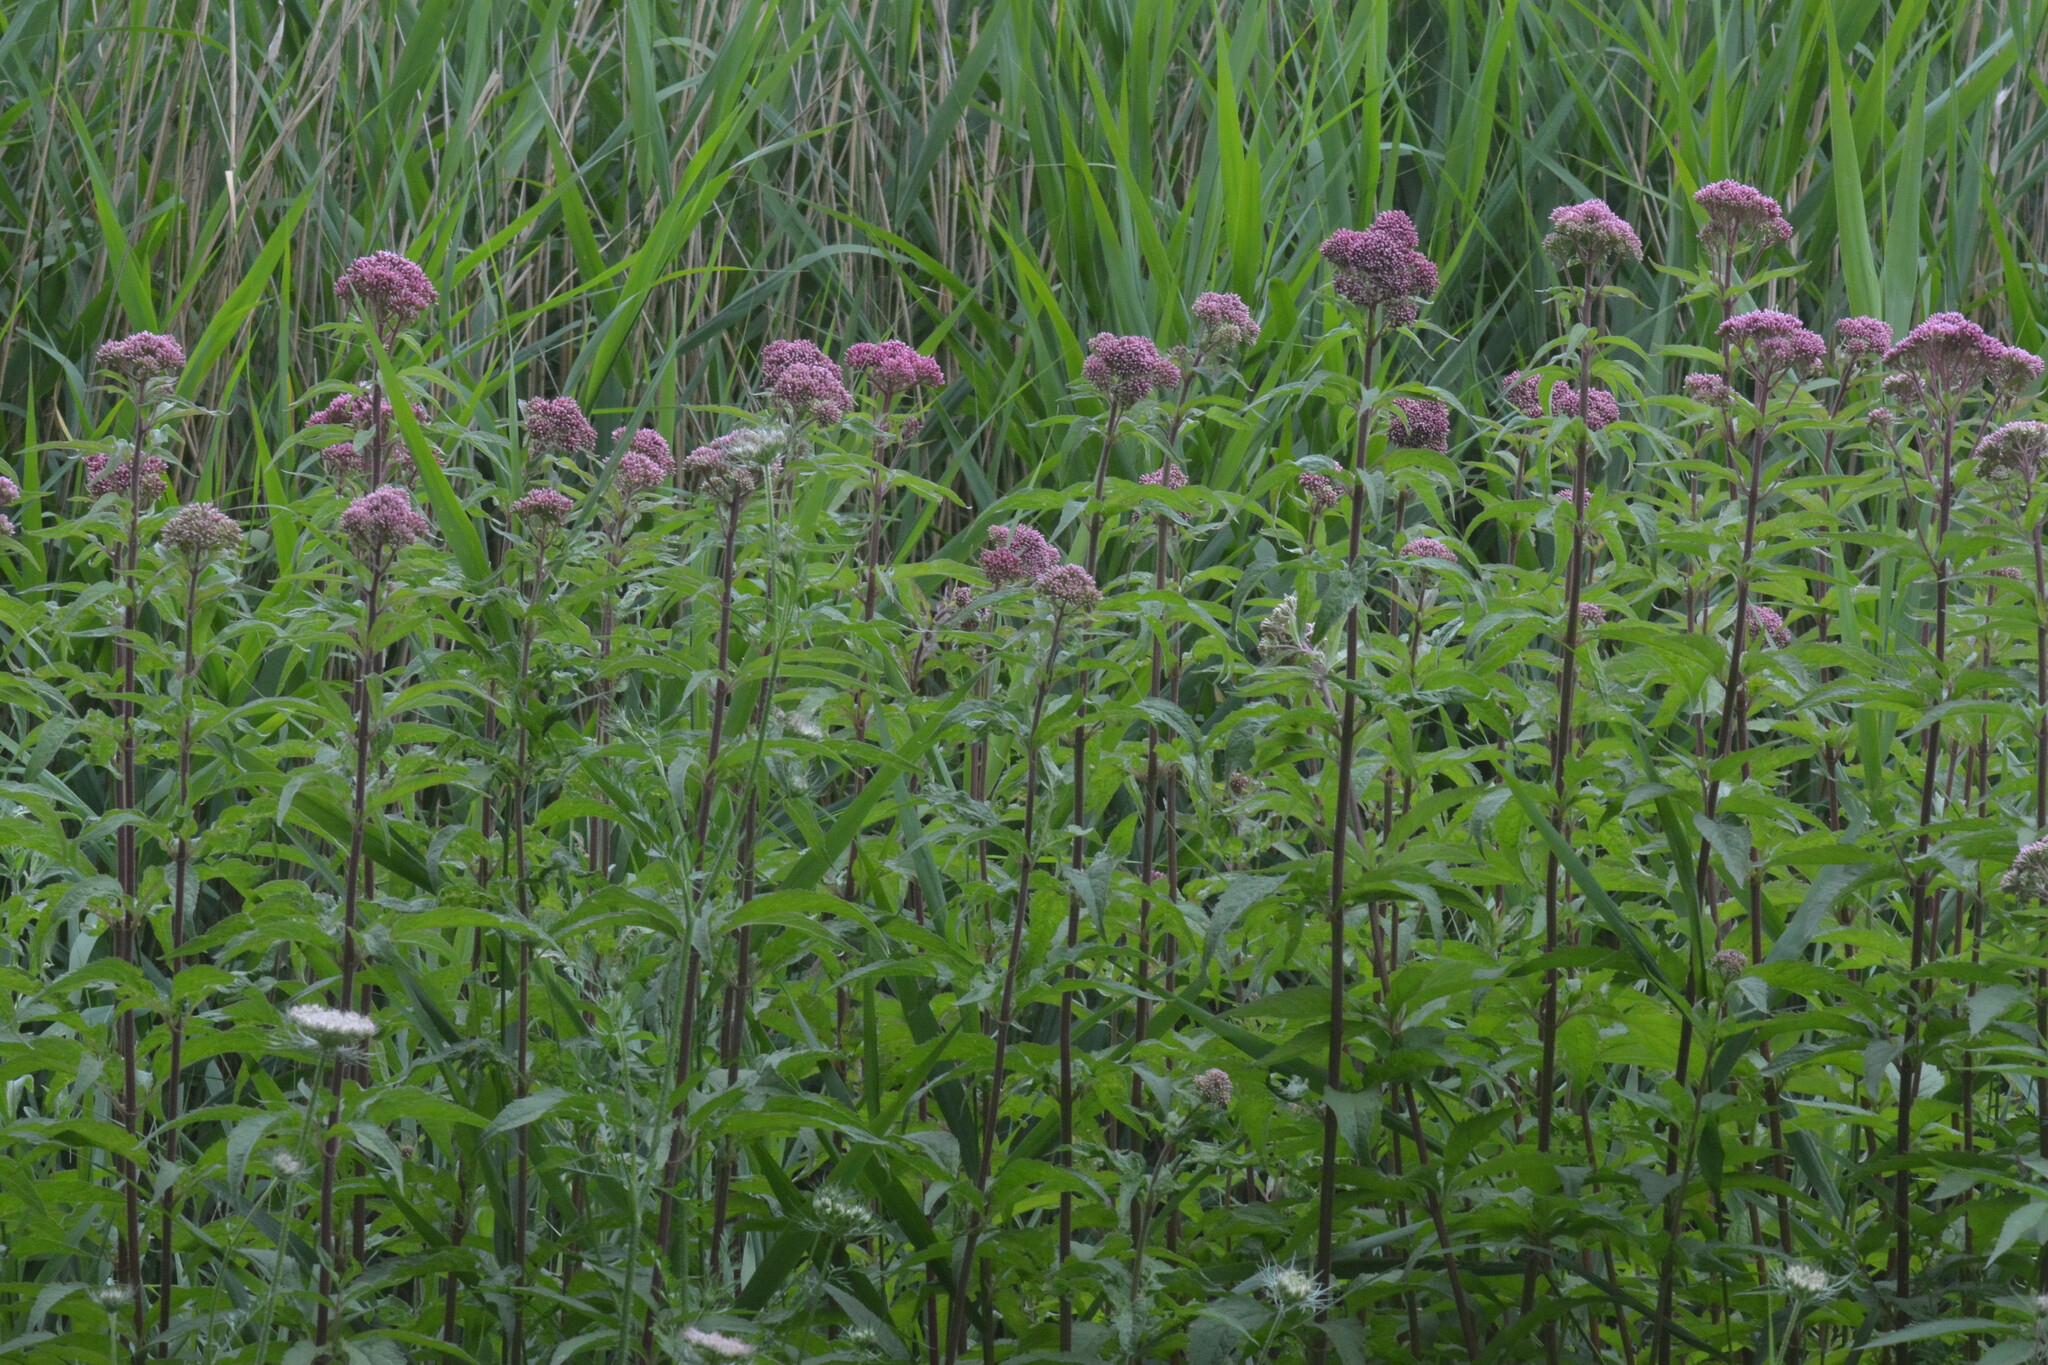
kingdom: Plantae
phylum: Tracheophyta
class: Magnoliopsida
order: Asterales
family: Asteraceae
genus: Eupatorium
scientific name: Eupatorium cannabinum
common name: Hemp-agrimony
